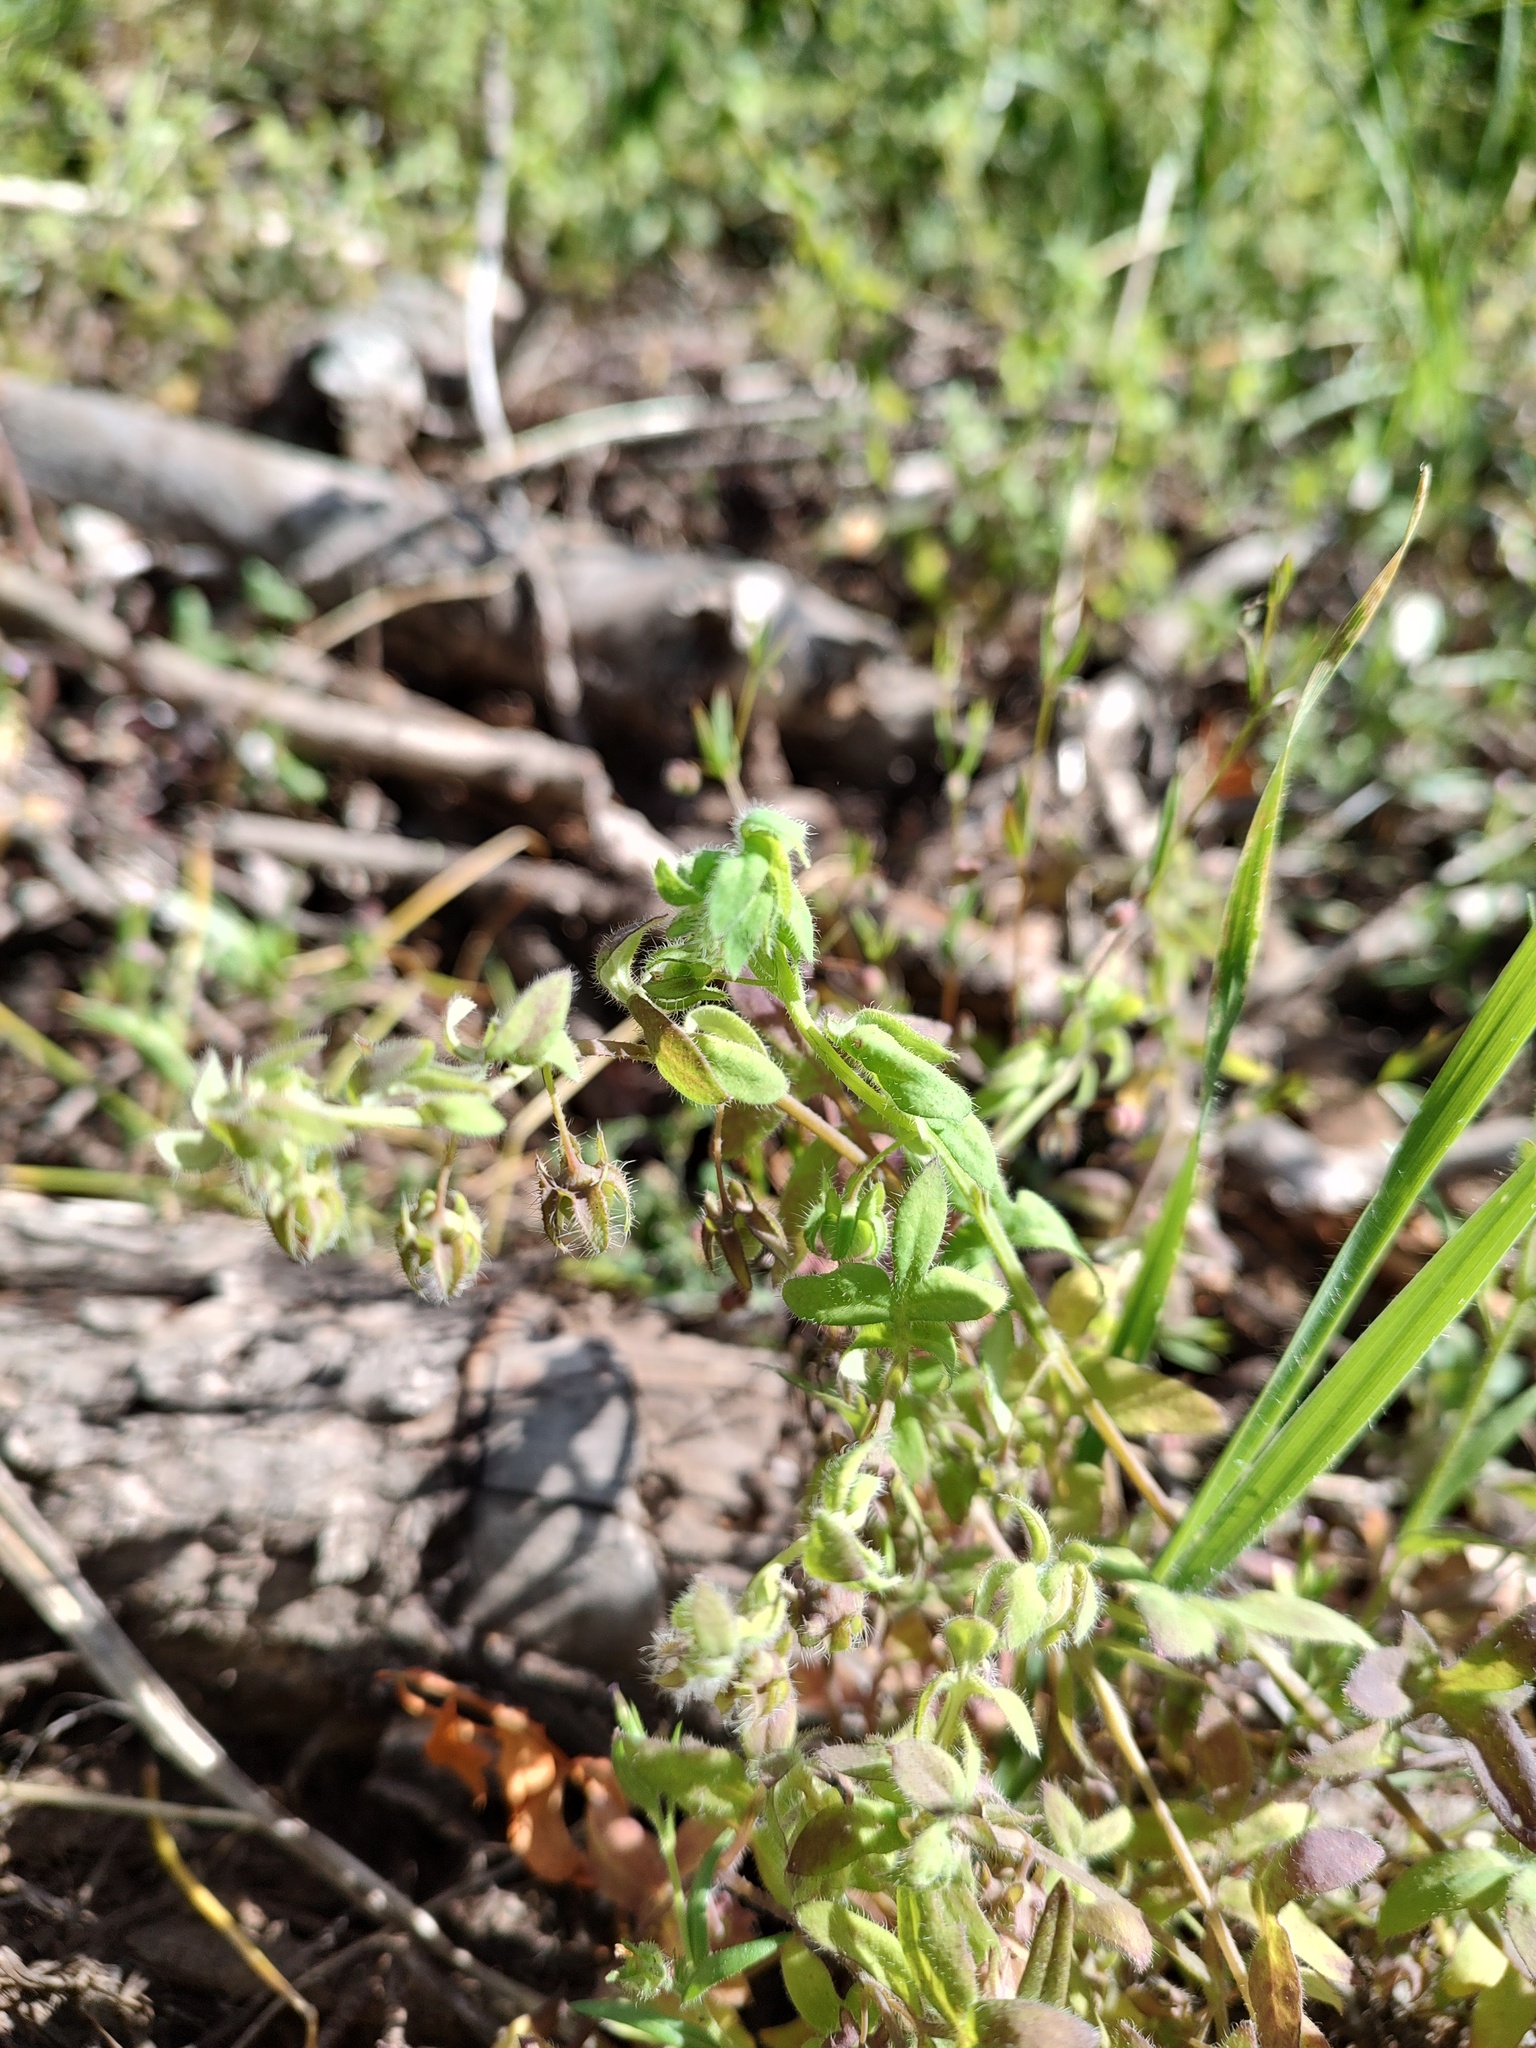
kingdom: Plantae
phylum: Tracheophyta
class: Magnoliopsida
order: Boraginales
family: Hydrophyllaceae
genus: Nemophila
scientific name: Nemophila breviflora
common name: Great basin baby-blue-eyes
